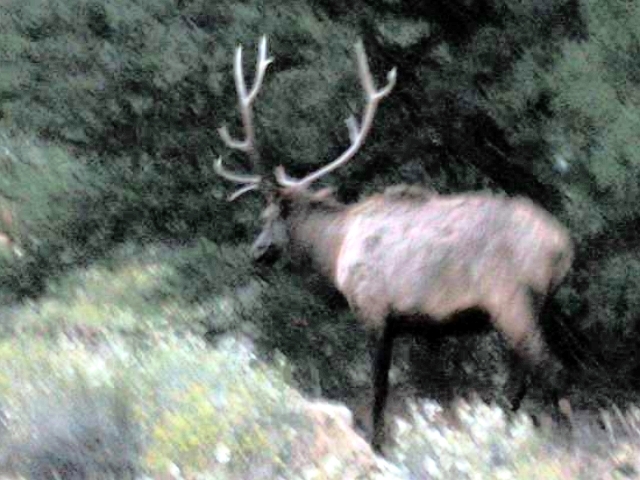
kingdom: Animalia
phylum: Chordata
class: Mammalia
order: Artiodactyla
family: Cervidae
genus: Cervus
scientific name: Cervus elaphus
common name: Red deer
